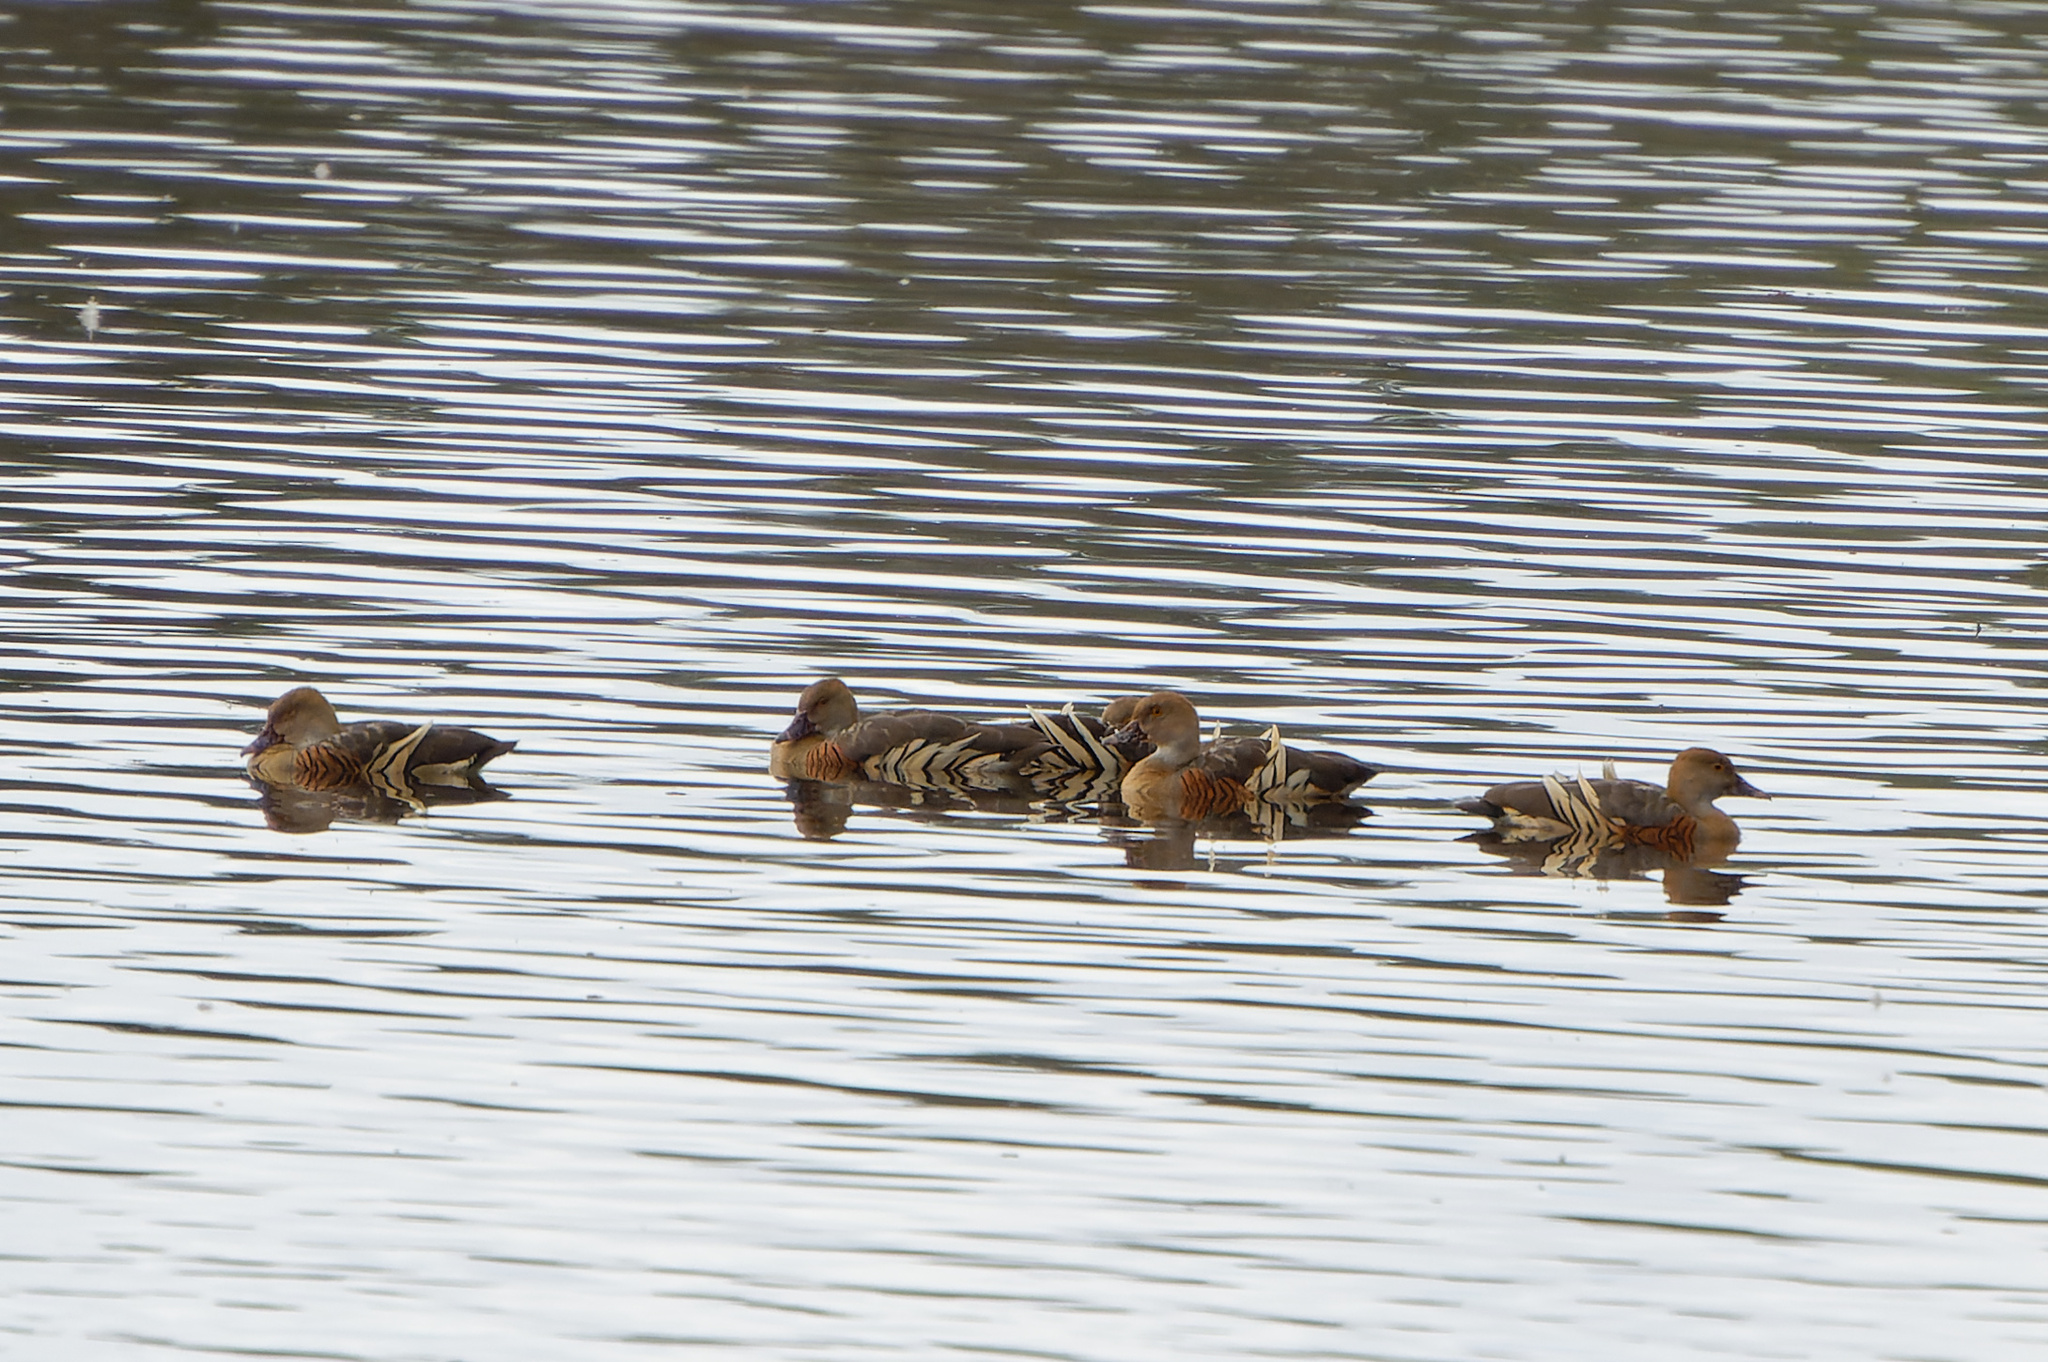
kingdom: Animalia
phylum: Chordata
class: Aves
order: Anseriformes
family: Anatidae
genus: Dendrocygna
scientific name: Dendrocygna eytoni
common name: Plumed whistling-duck
